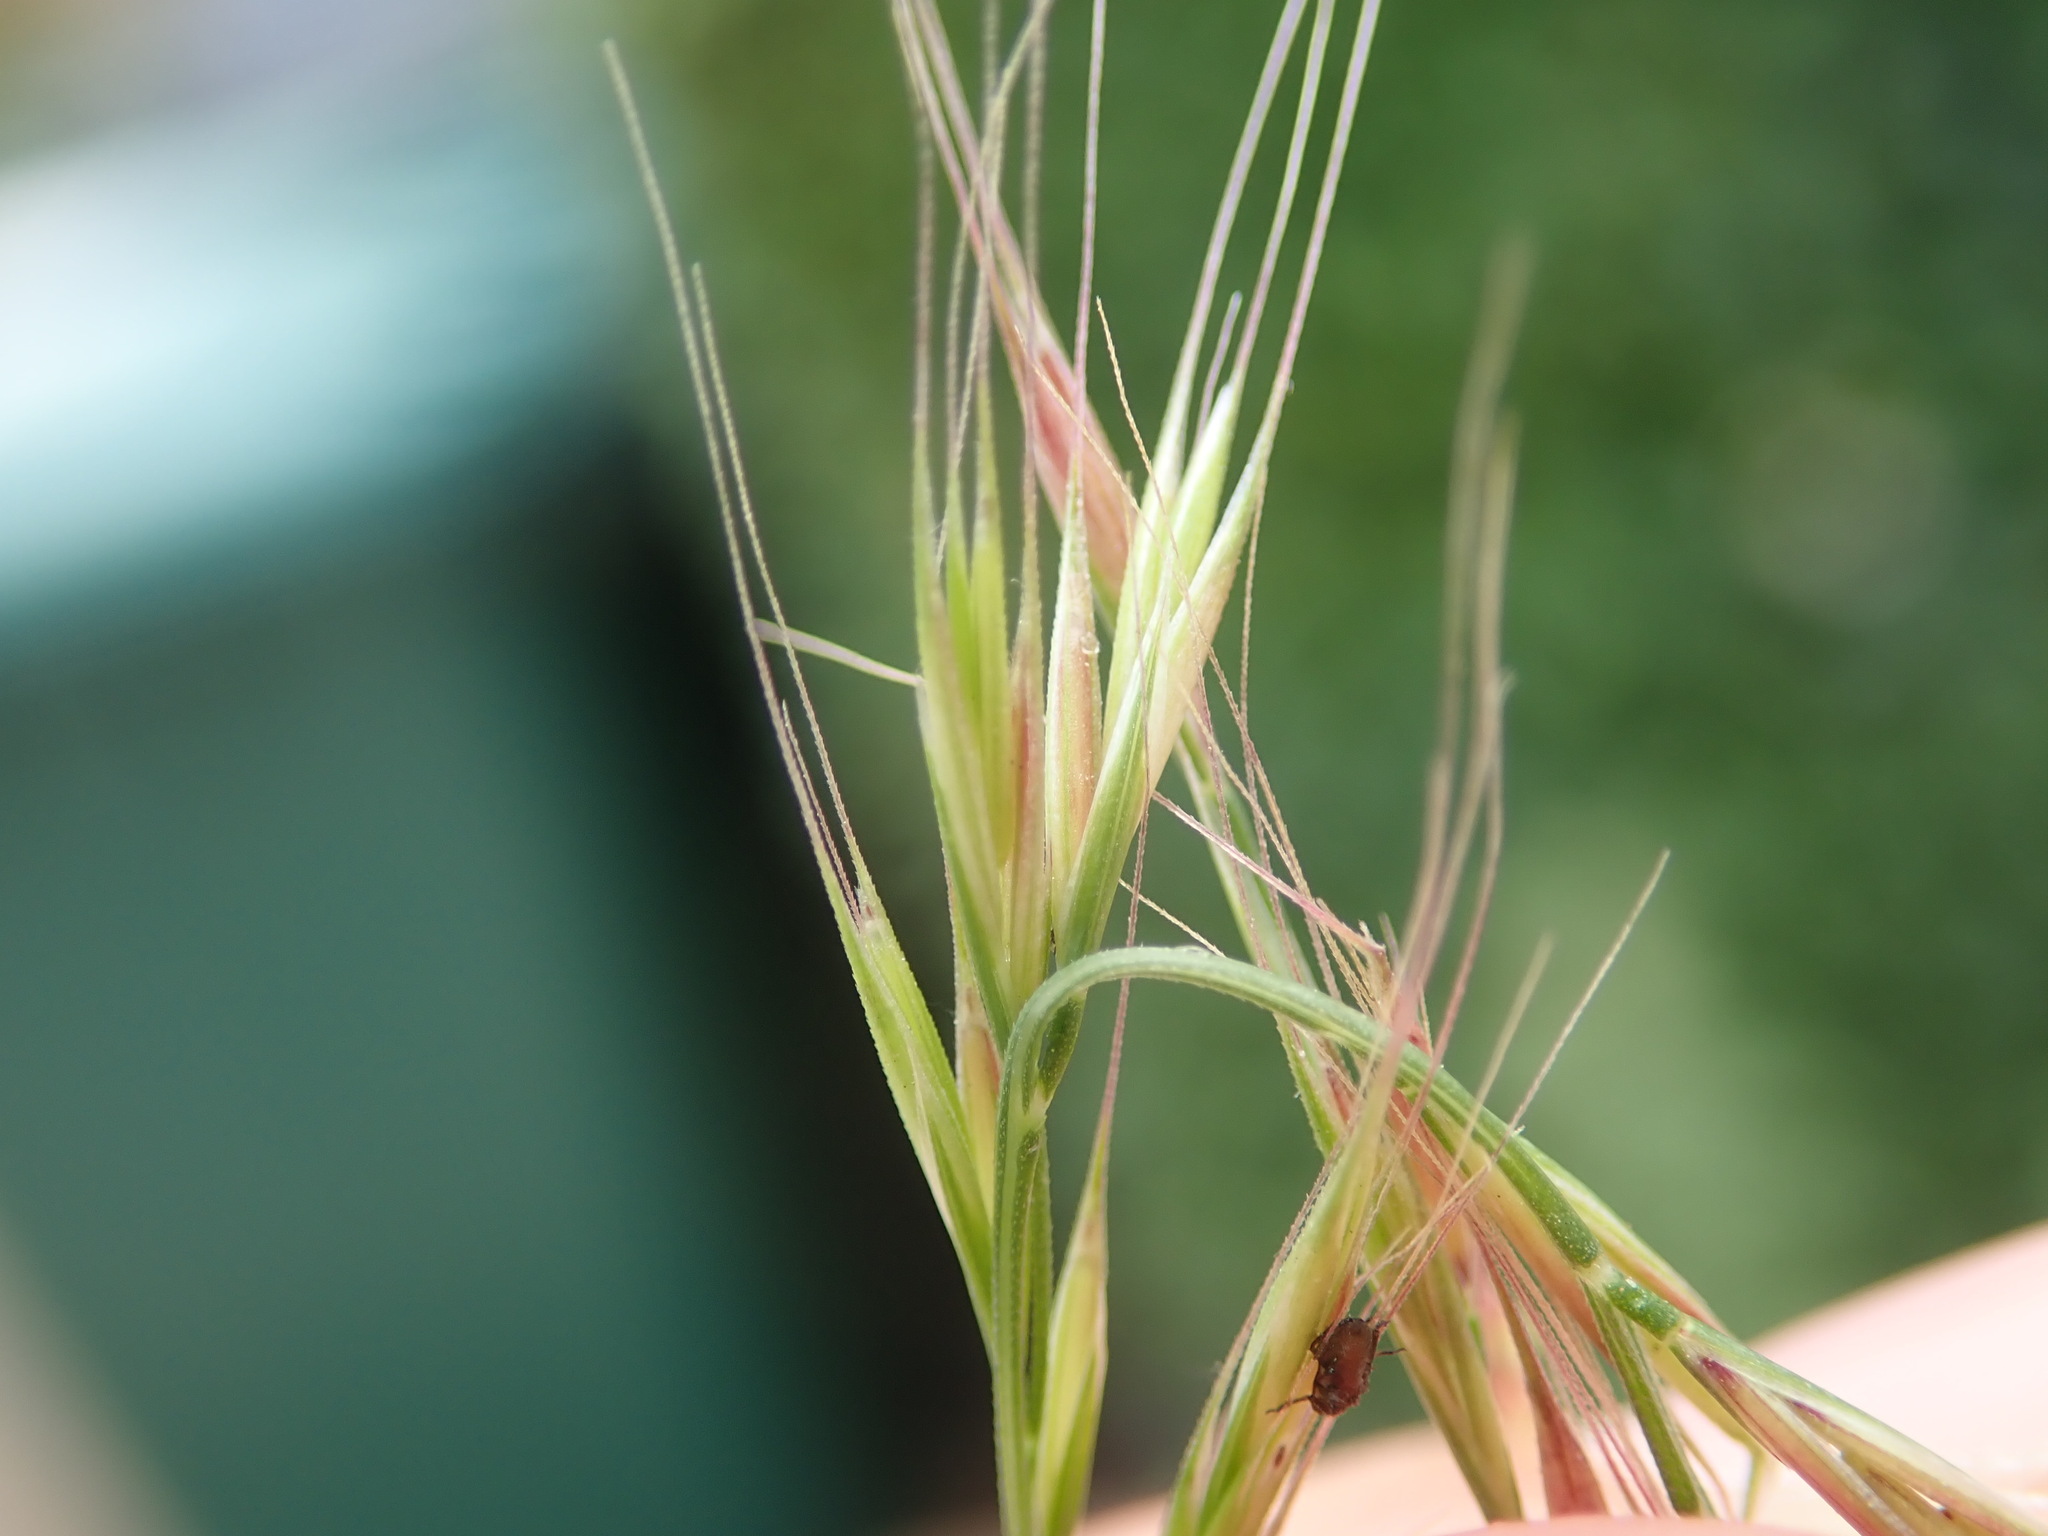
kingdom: Plantae
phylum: Tracheophyta
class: Liliopsida
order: Poales
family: Poaceae
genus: Festuca
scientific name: Festuca myuros
